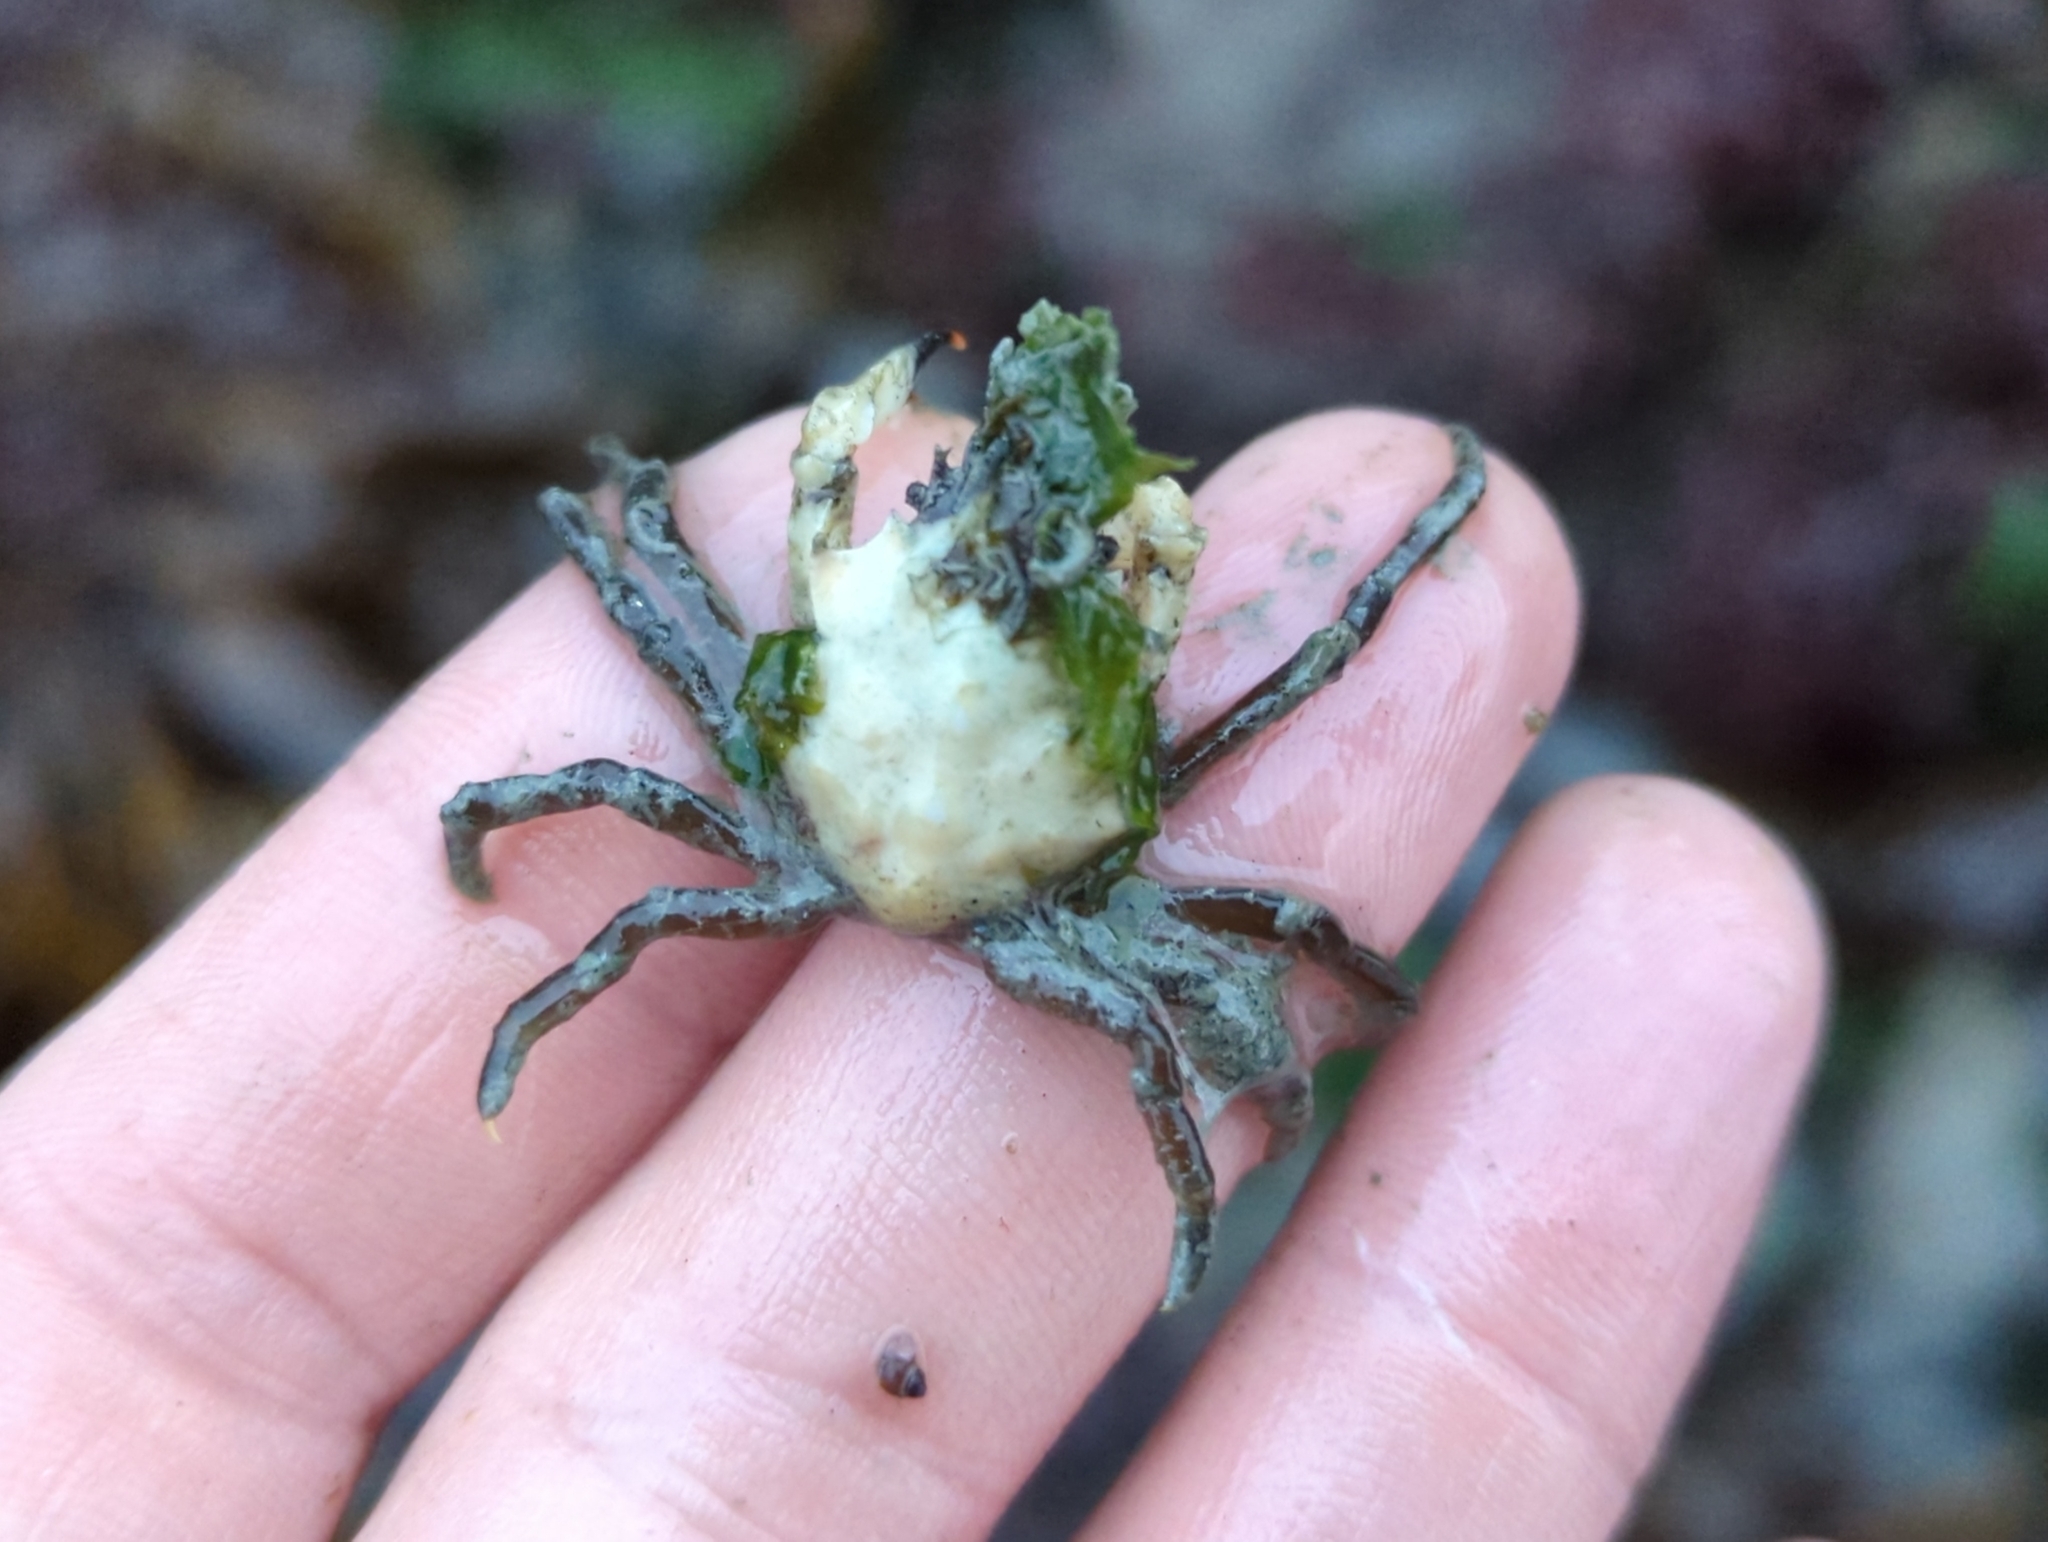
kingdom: Animalia
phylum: Arthropoda
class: Malacostraca
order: Decapoda
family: Epialtidae
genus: Pugettia
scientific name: Pugettia gracilis
